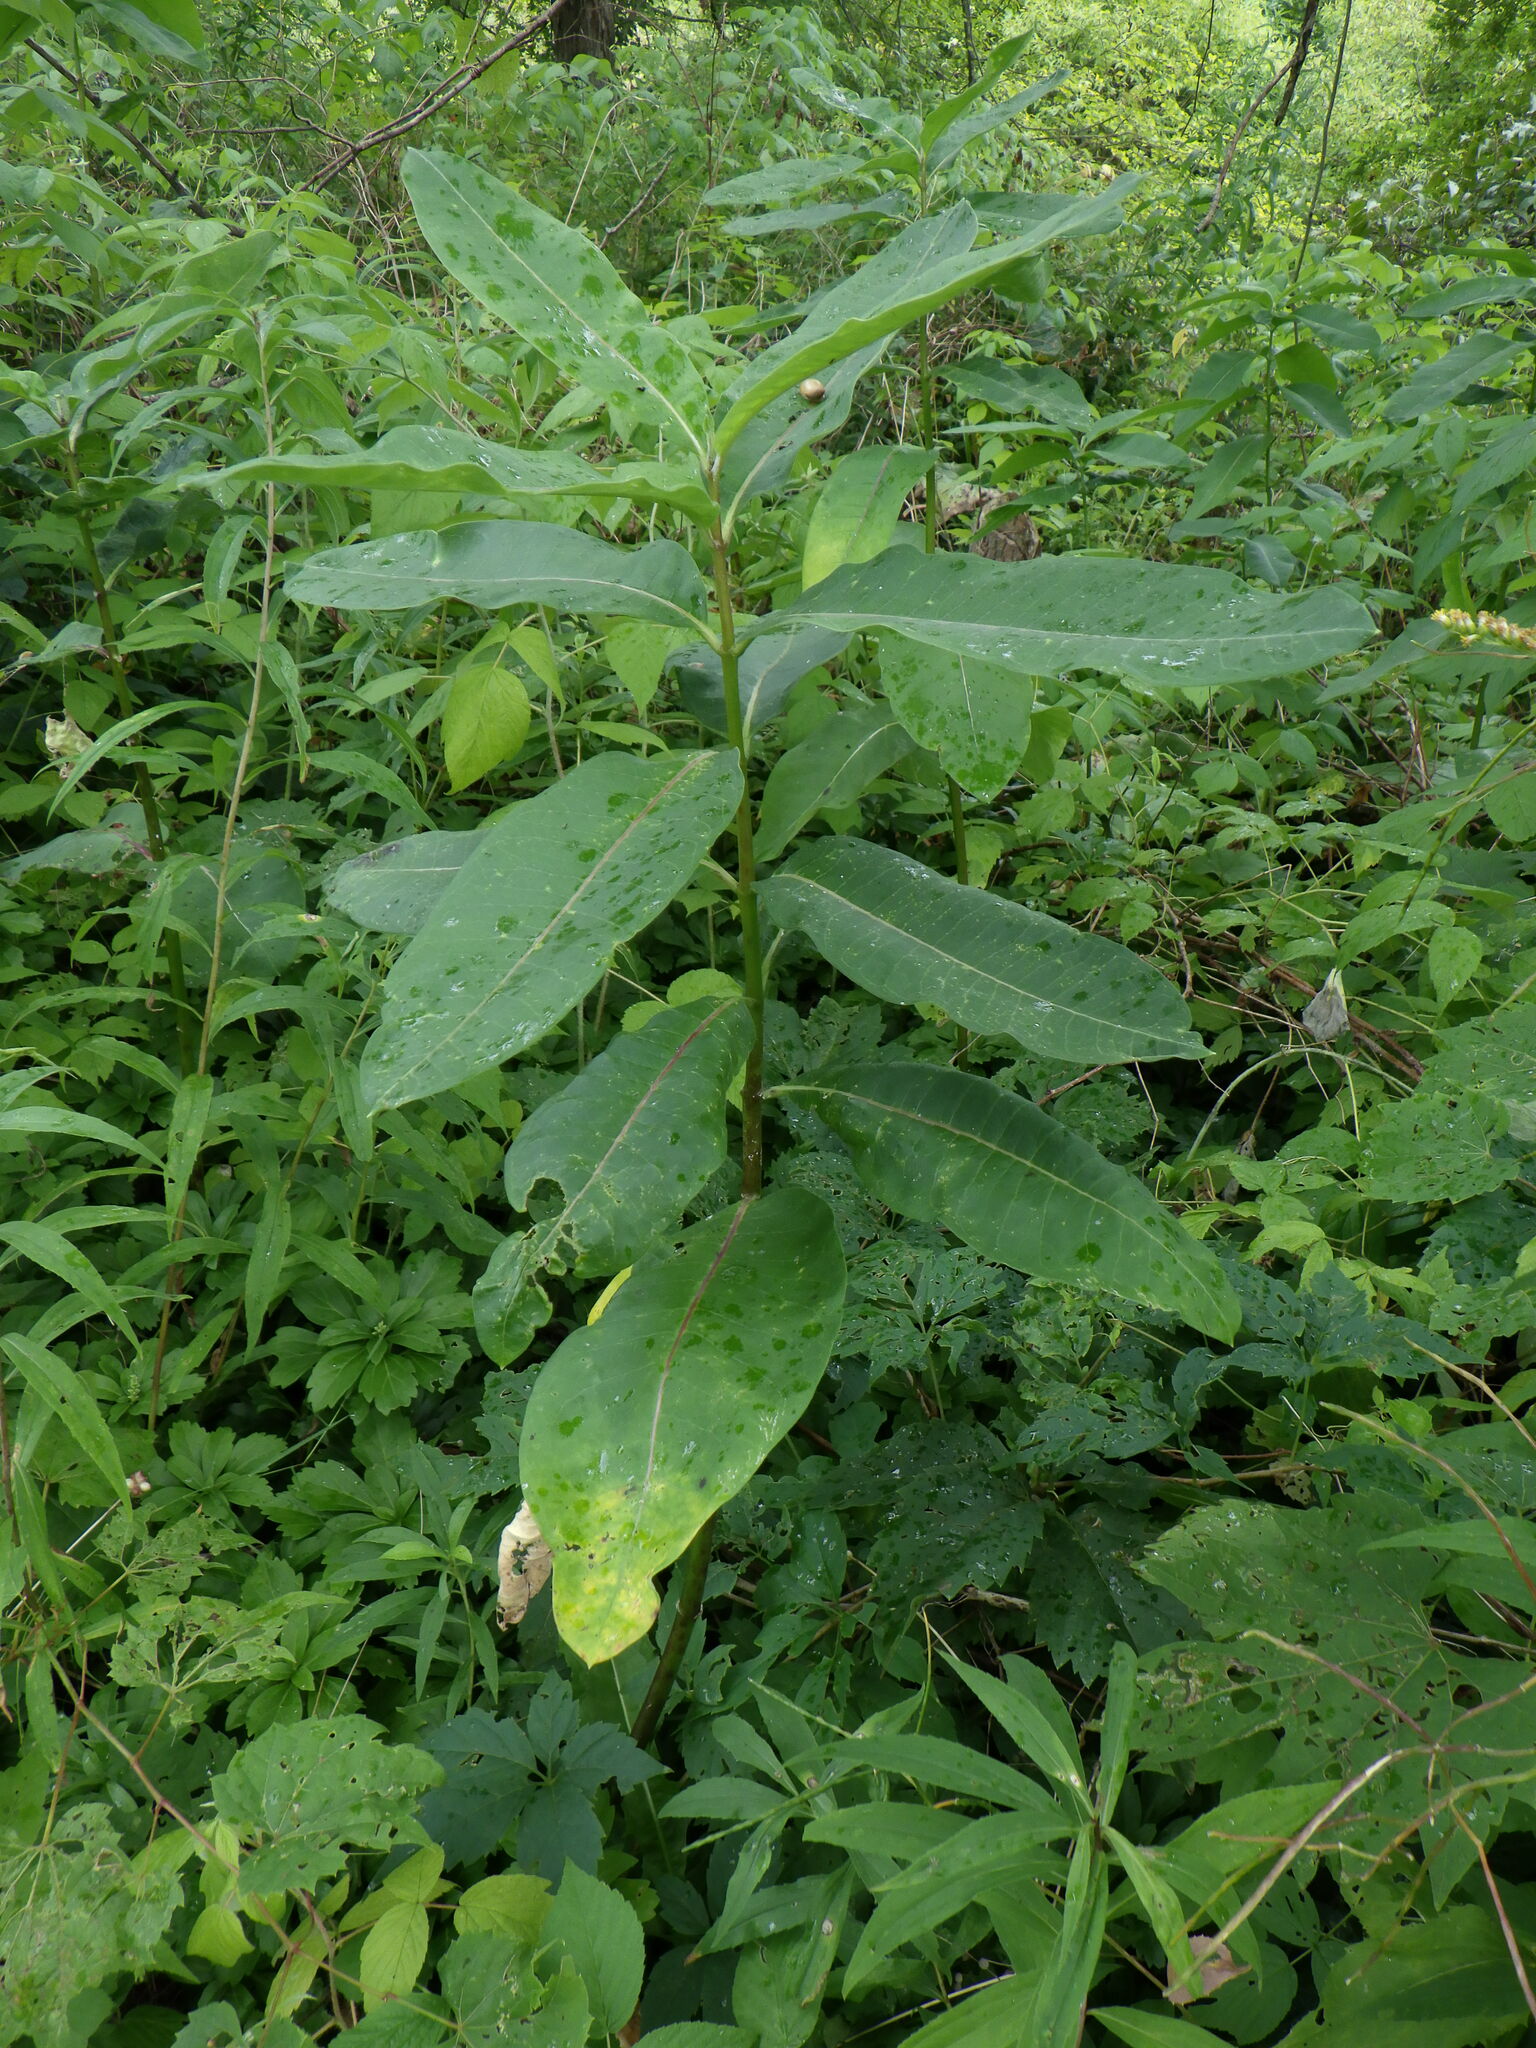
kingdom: Plantae
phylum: Tracheophyta
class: Magnoliopsida
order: Gentianales
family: Apocynaceae
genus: Asclepias
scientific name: Asclepias syriaca
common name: Common milkweed
